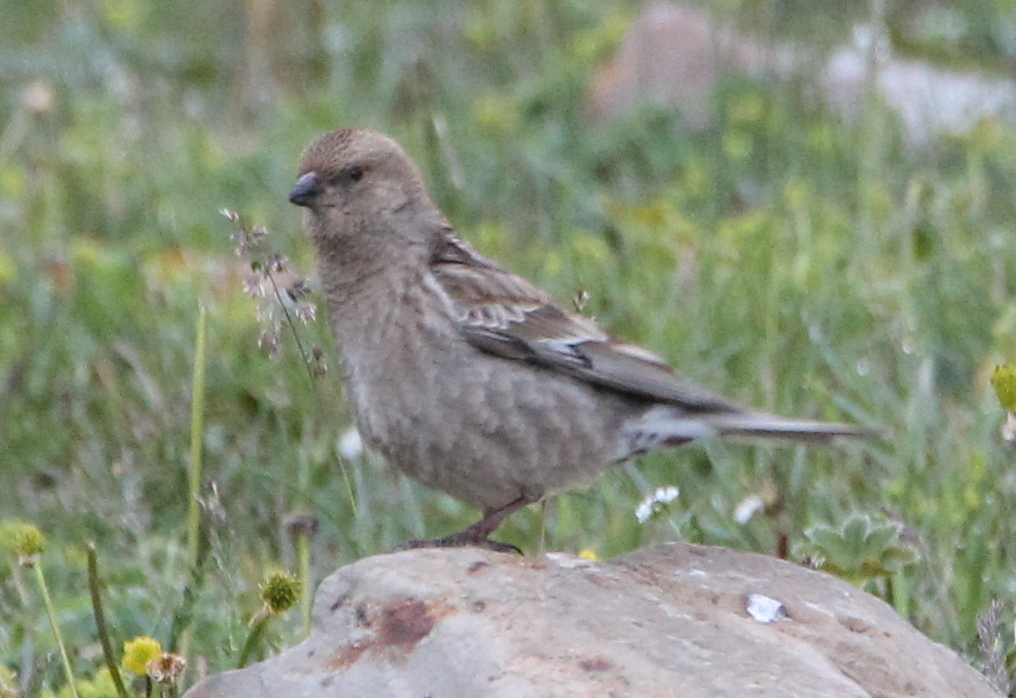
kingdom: Animalia
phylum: Chordata
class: Aves
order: Passeriformes
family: Fringillidae
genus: Leucosticte
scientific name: Leucosticte nemoricola
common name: Plain mountain finch
